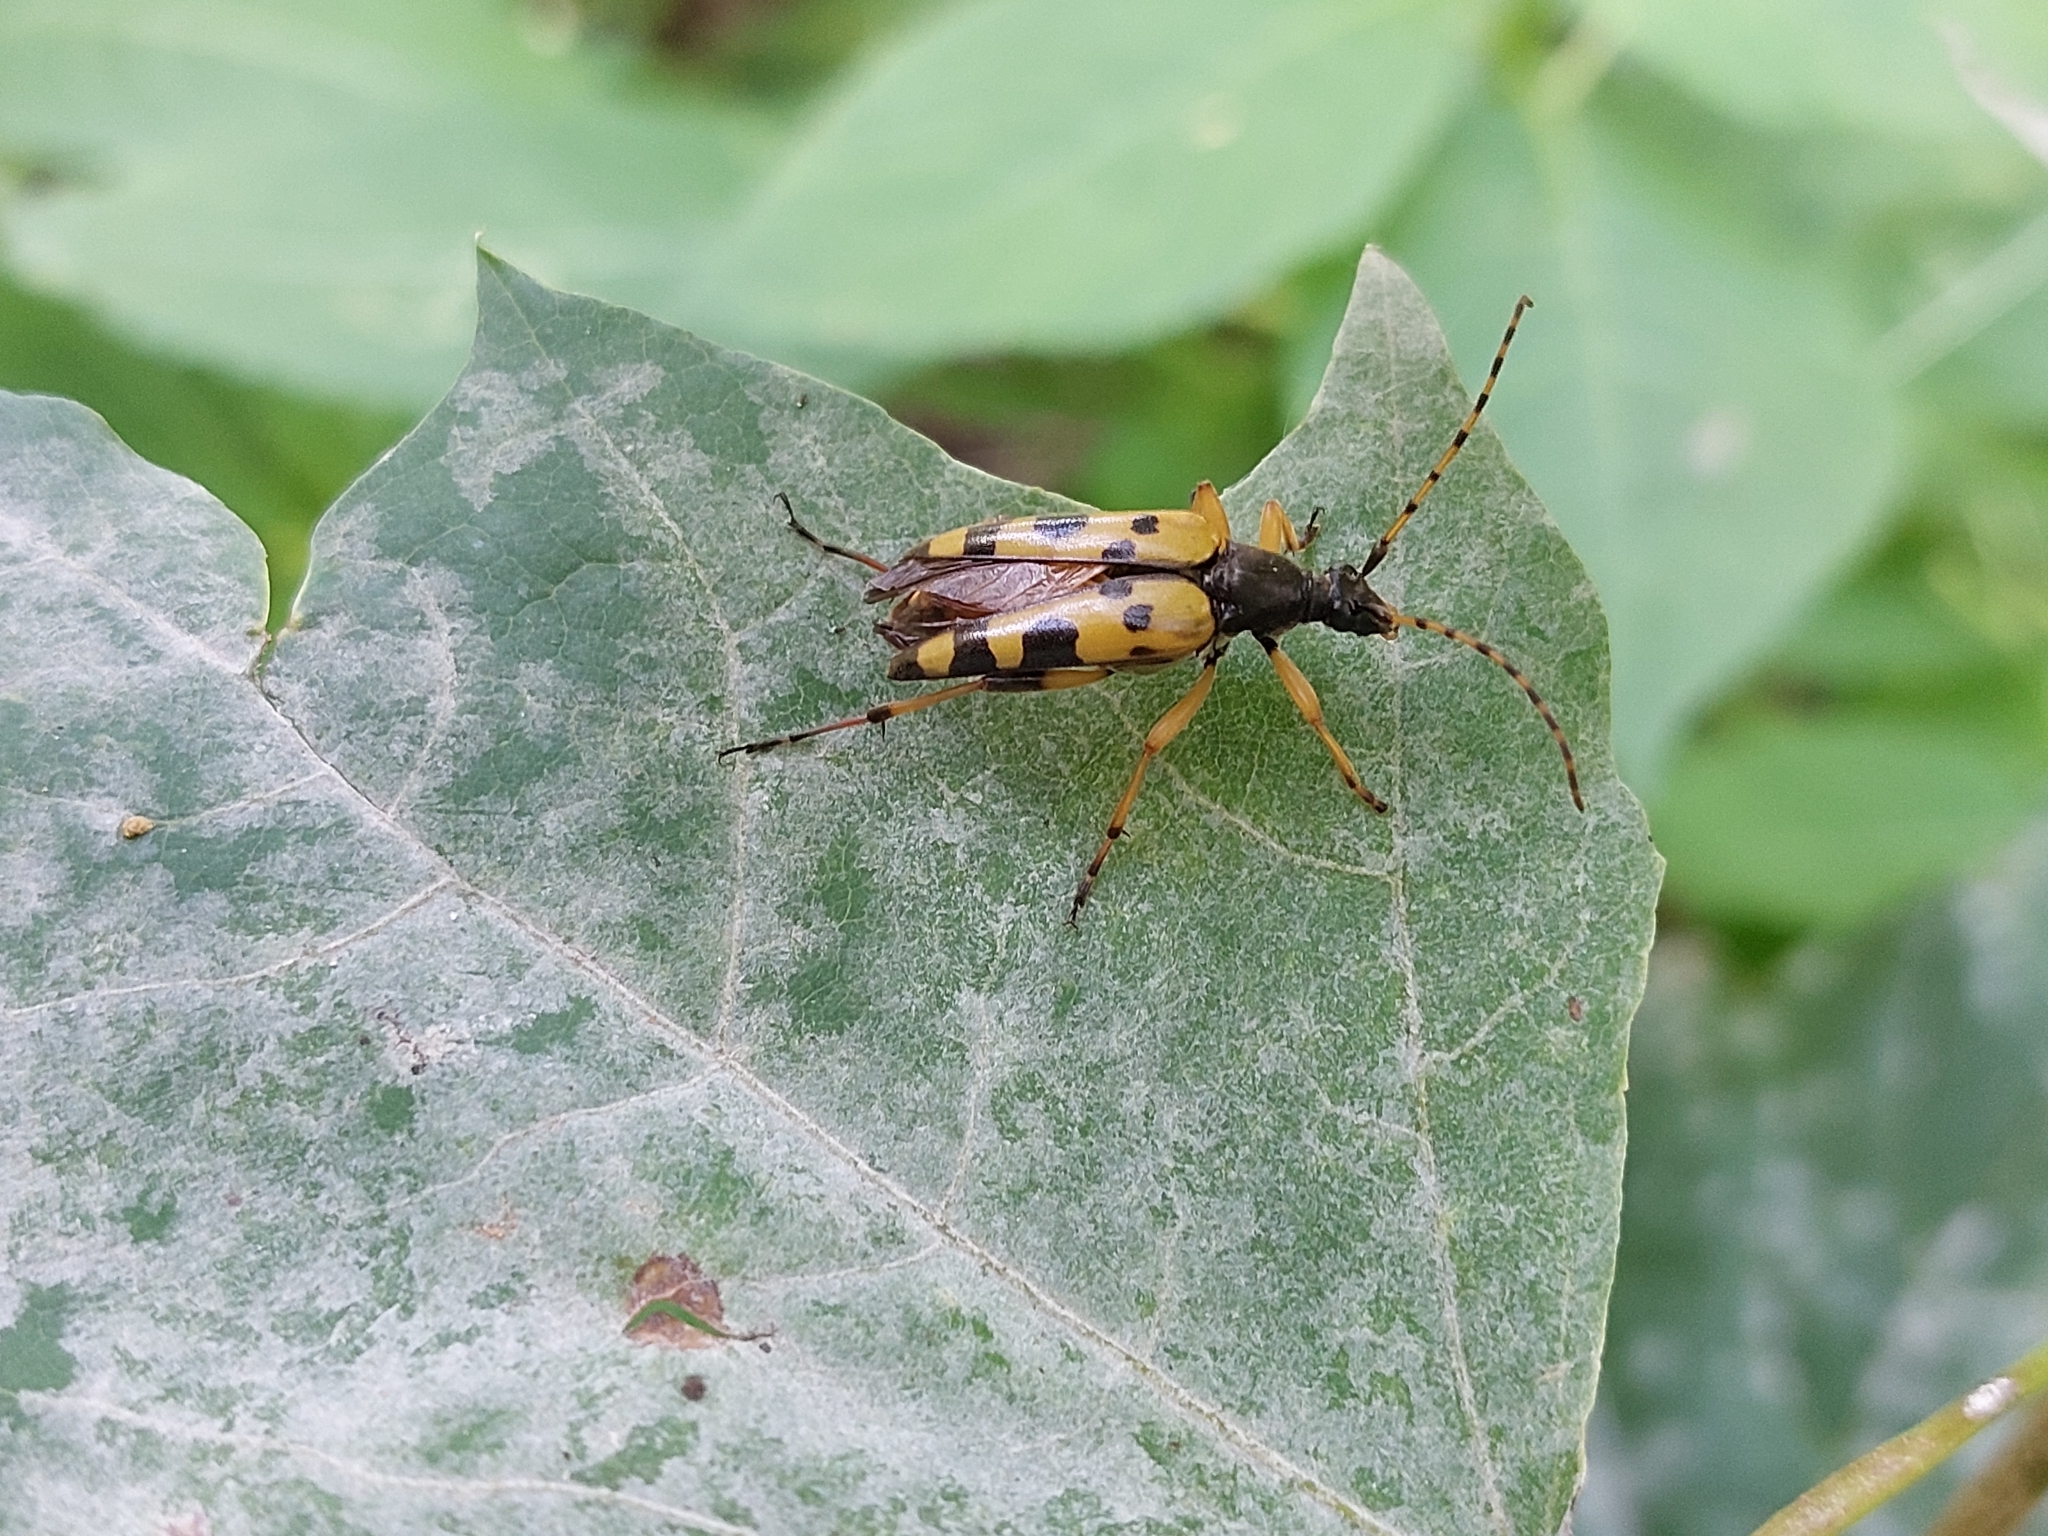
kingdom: Animalia
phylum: Arthropoda
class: Insecta
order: Coleoptera
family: Cerambycidae
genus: Rutpela
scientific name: Rutpela maculata
